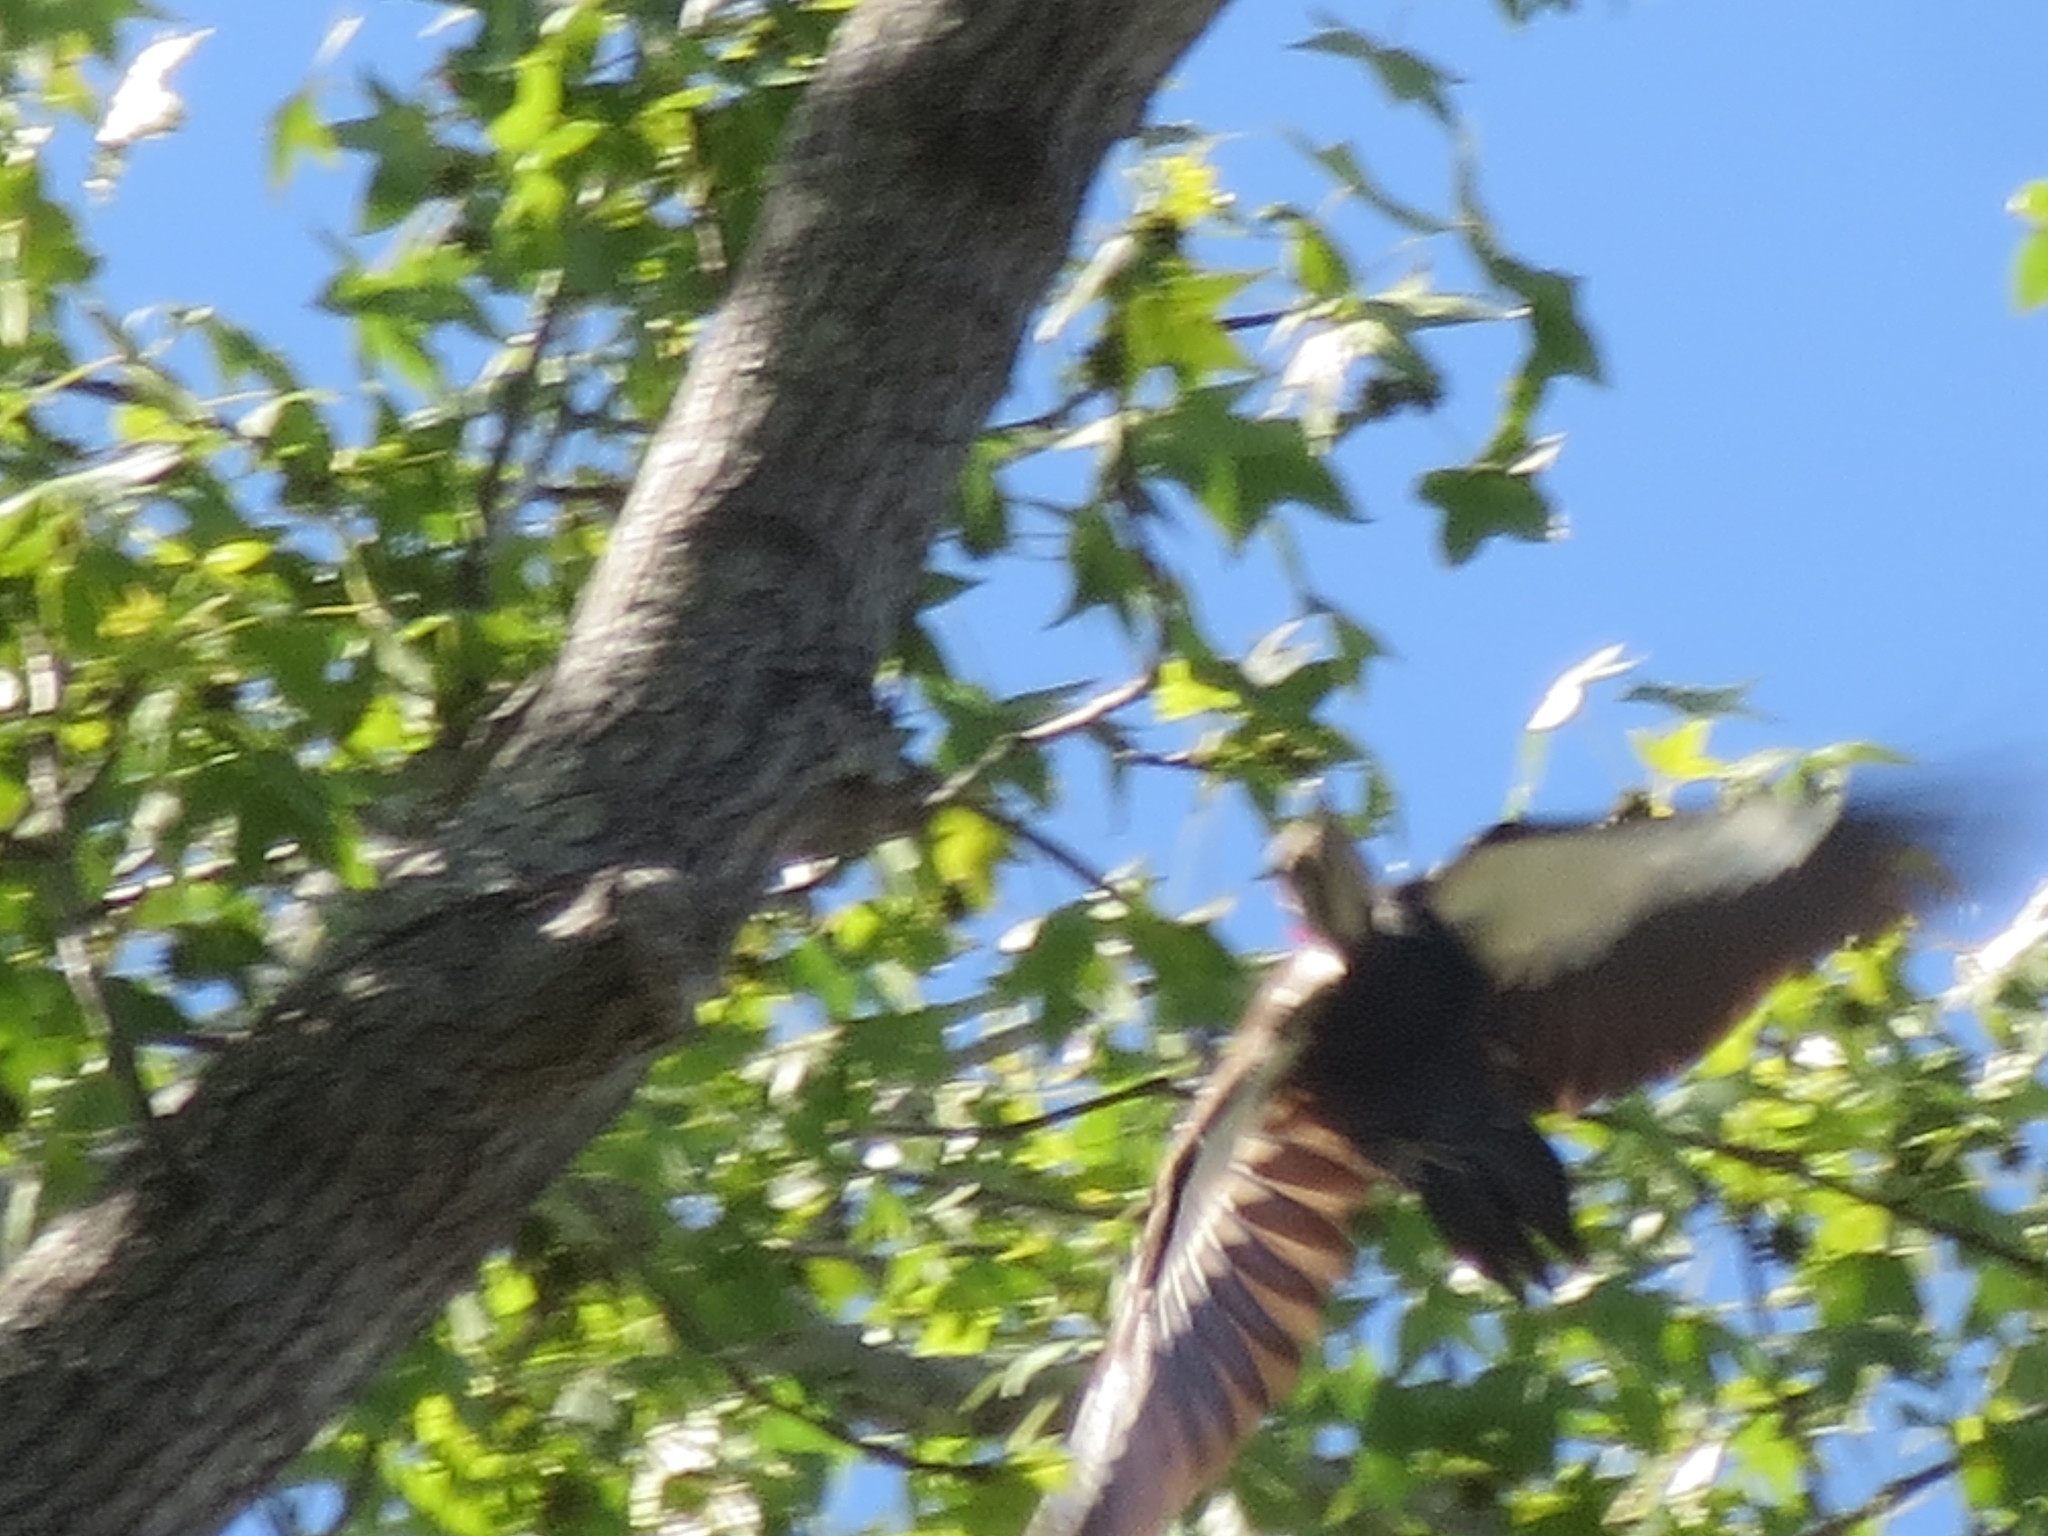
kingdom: Animalia
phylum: Chordata
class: Aves
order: Piciformes
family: Picidae
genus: Dryocopus
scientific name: Dryocopus pileatus
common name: Pileated woodpecker
